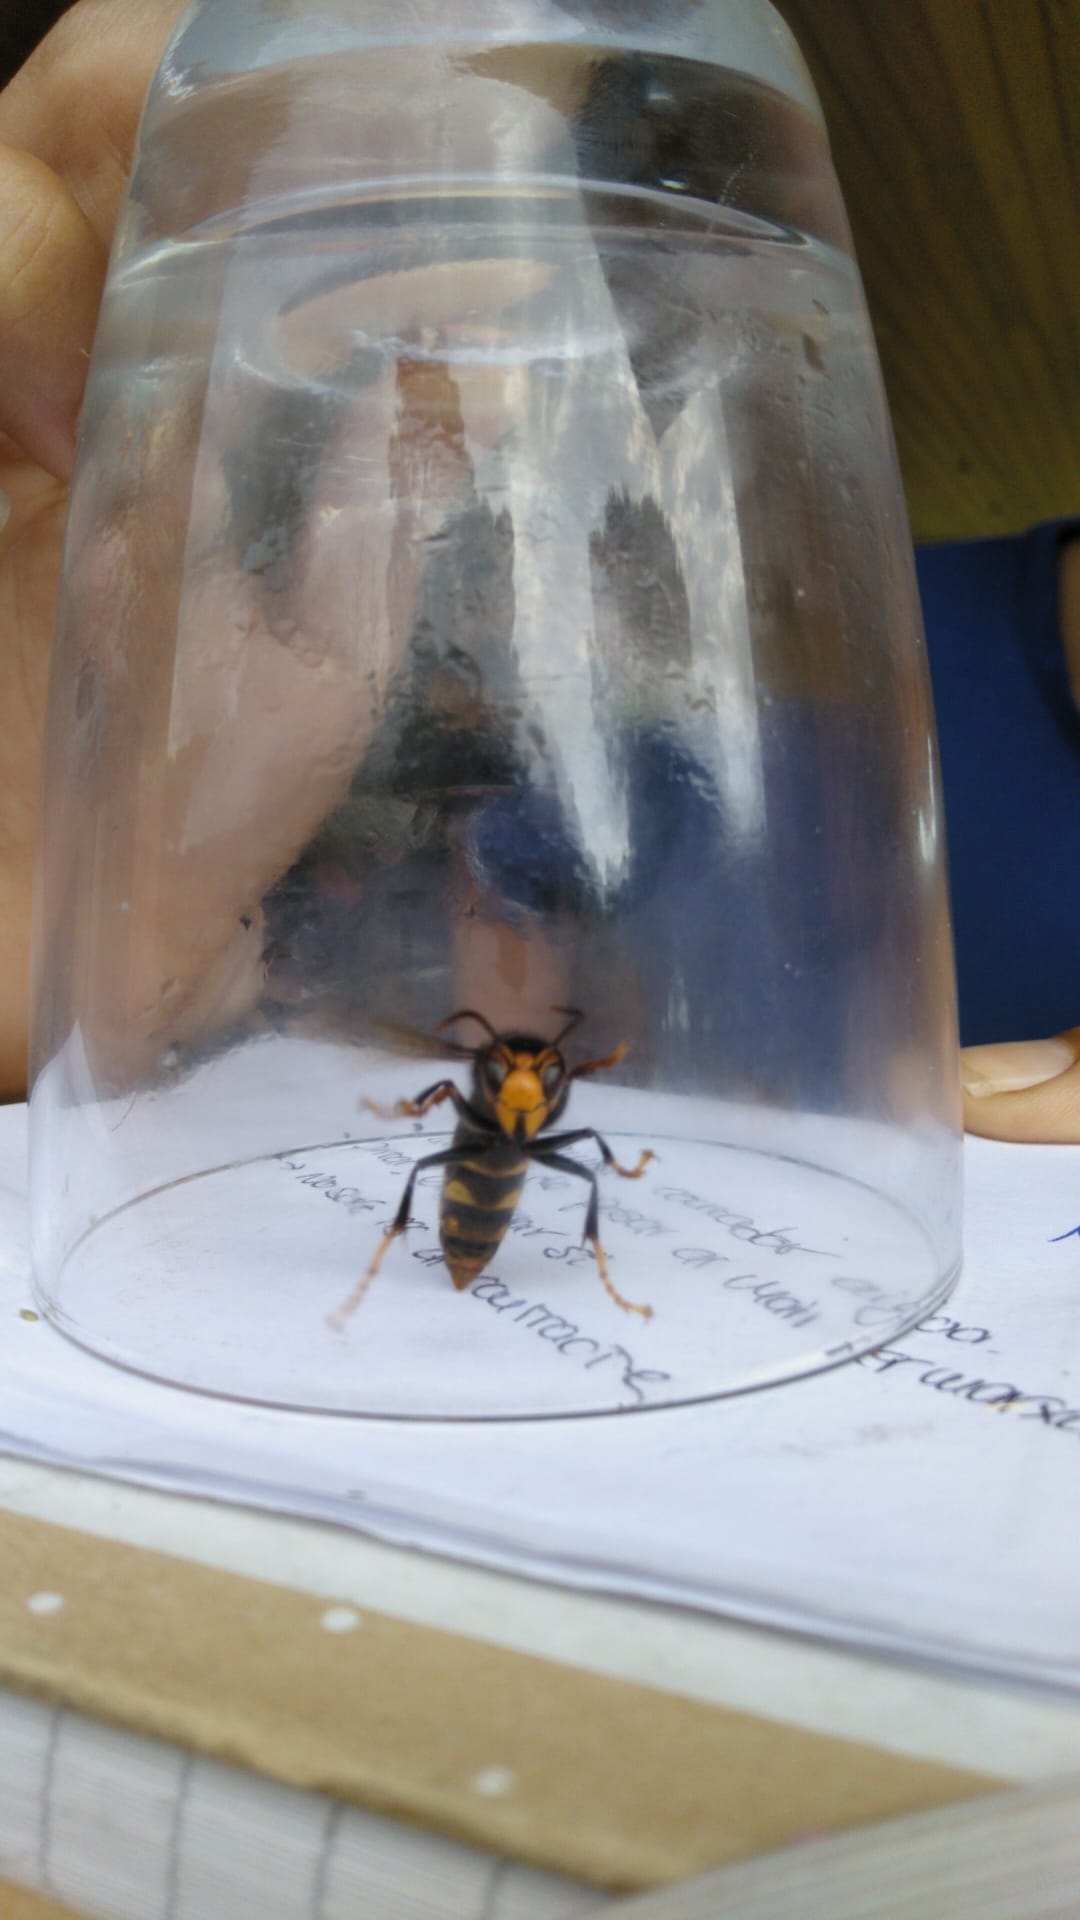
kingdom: Animalia
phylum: Arthropoda
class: Insecta
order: Hymenoptera
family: Vespidae
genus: Vespa
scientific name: Vespa velutina
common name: Asian hornet
